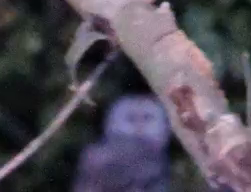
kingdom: Animalia
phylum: Chordata
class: Aves
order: Strigiformes
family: Strigidae
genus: Strix
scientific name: Strix aluco
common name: Tawny owl
